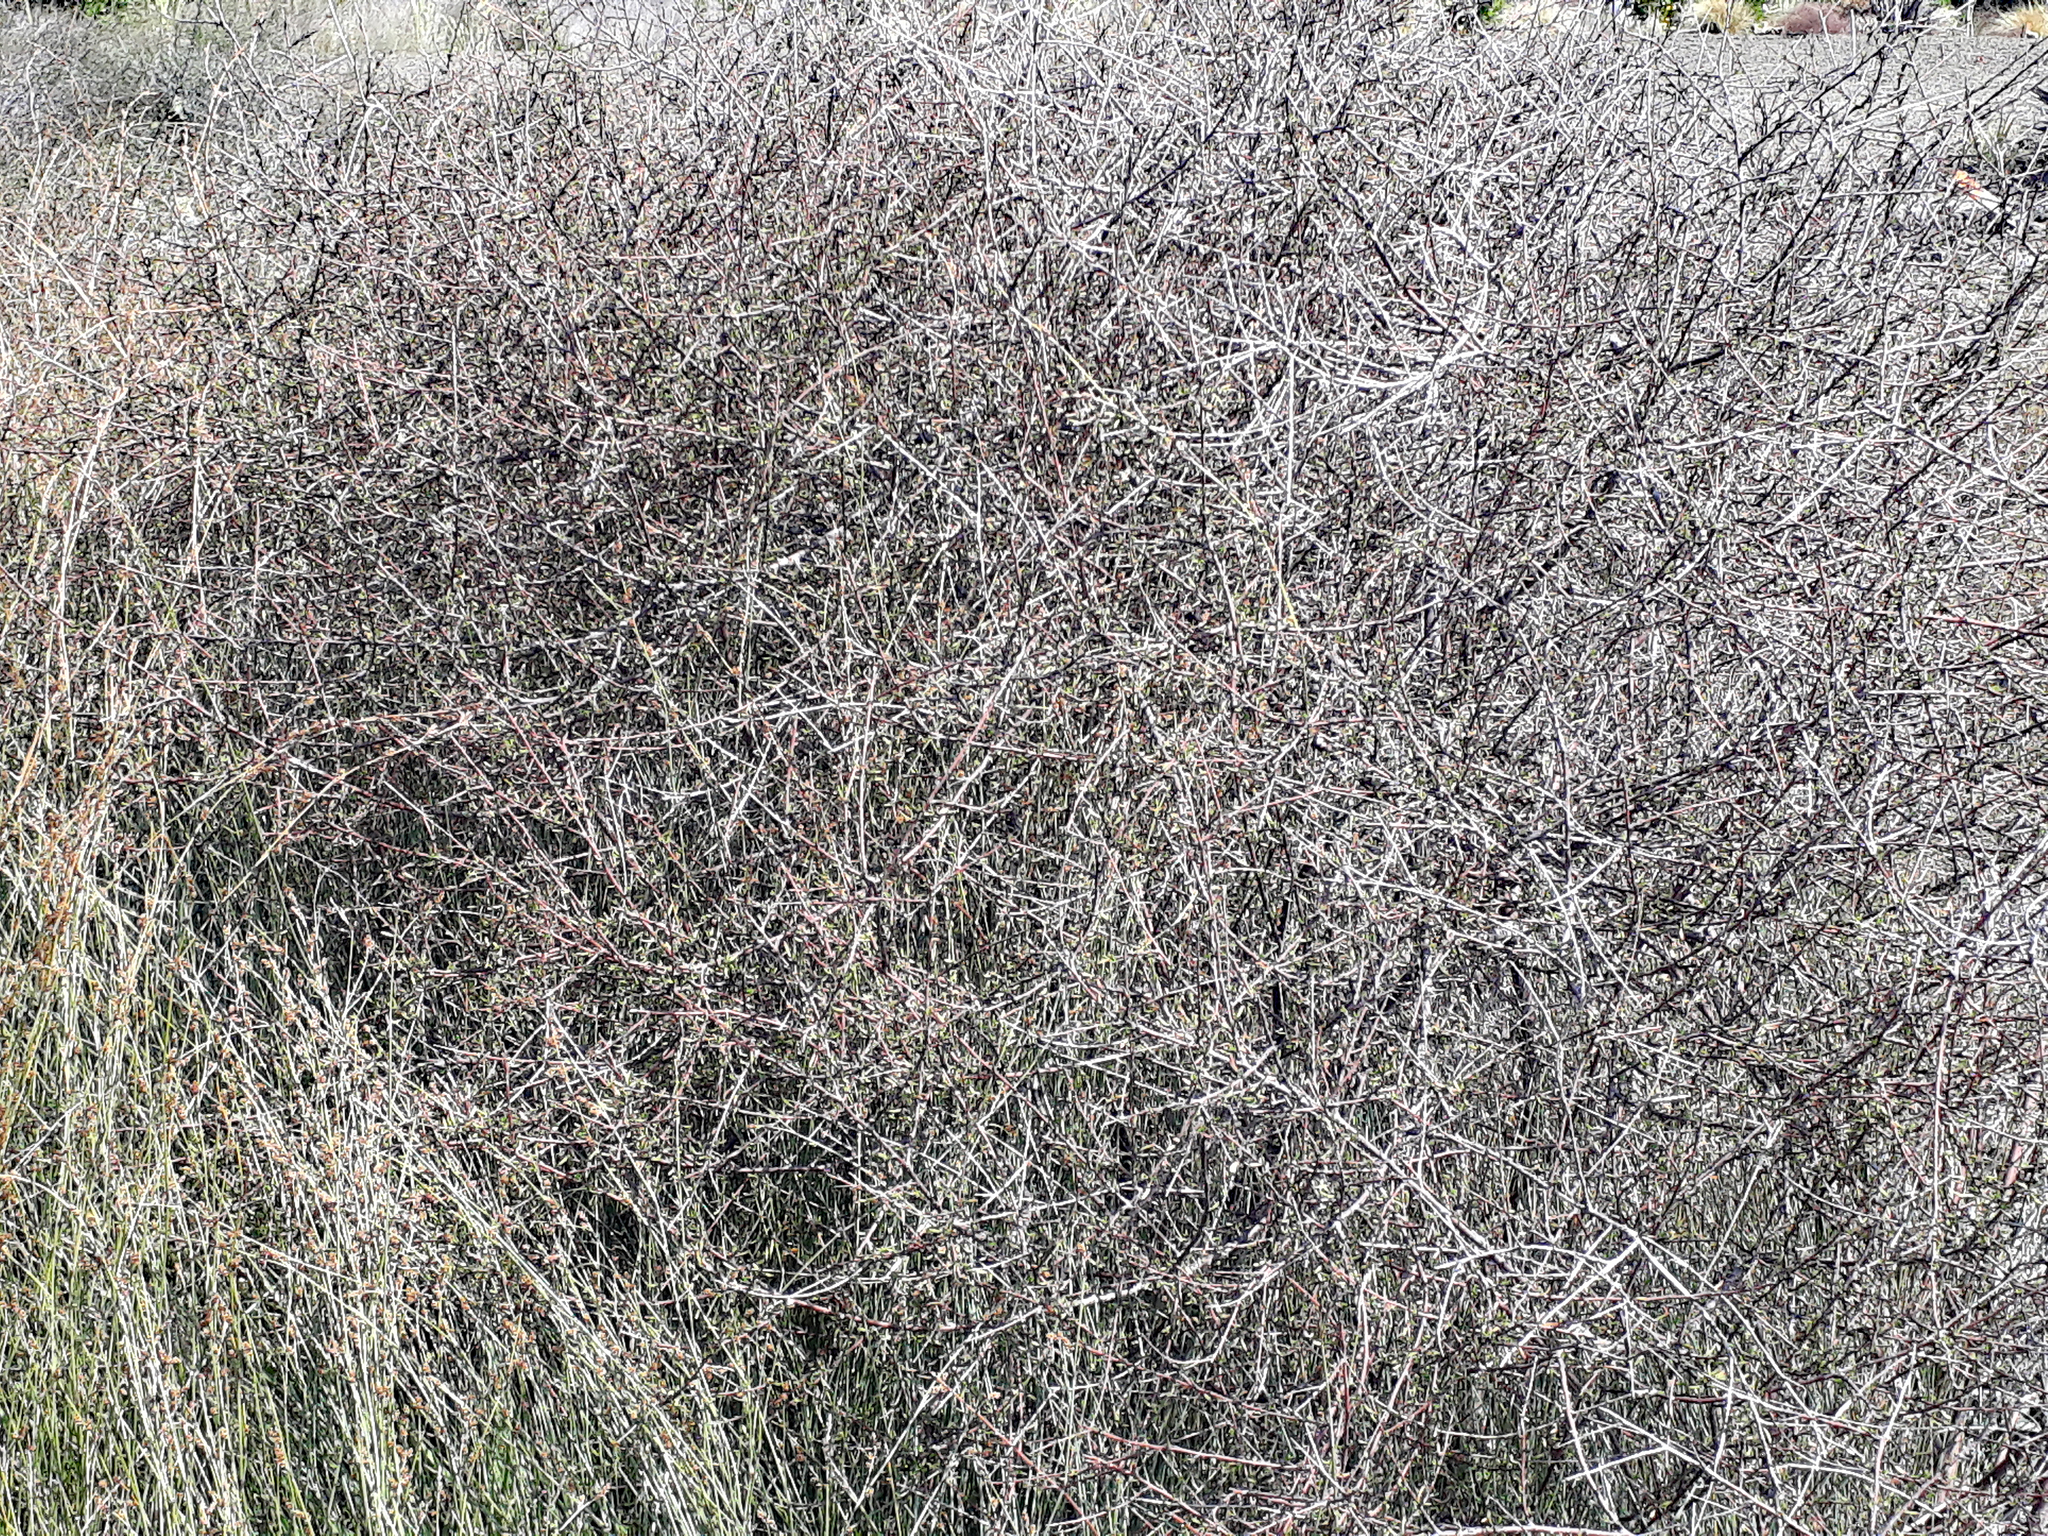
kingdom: Plantae
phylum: Tracheophyta
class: Magnoliopsida
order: Malvales
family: Malvaceae
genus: Plagianthus
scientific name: Plagianthus divaricatus
